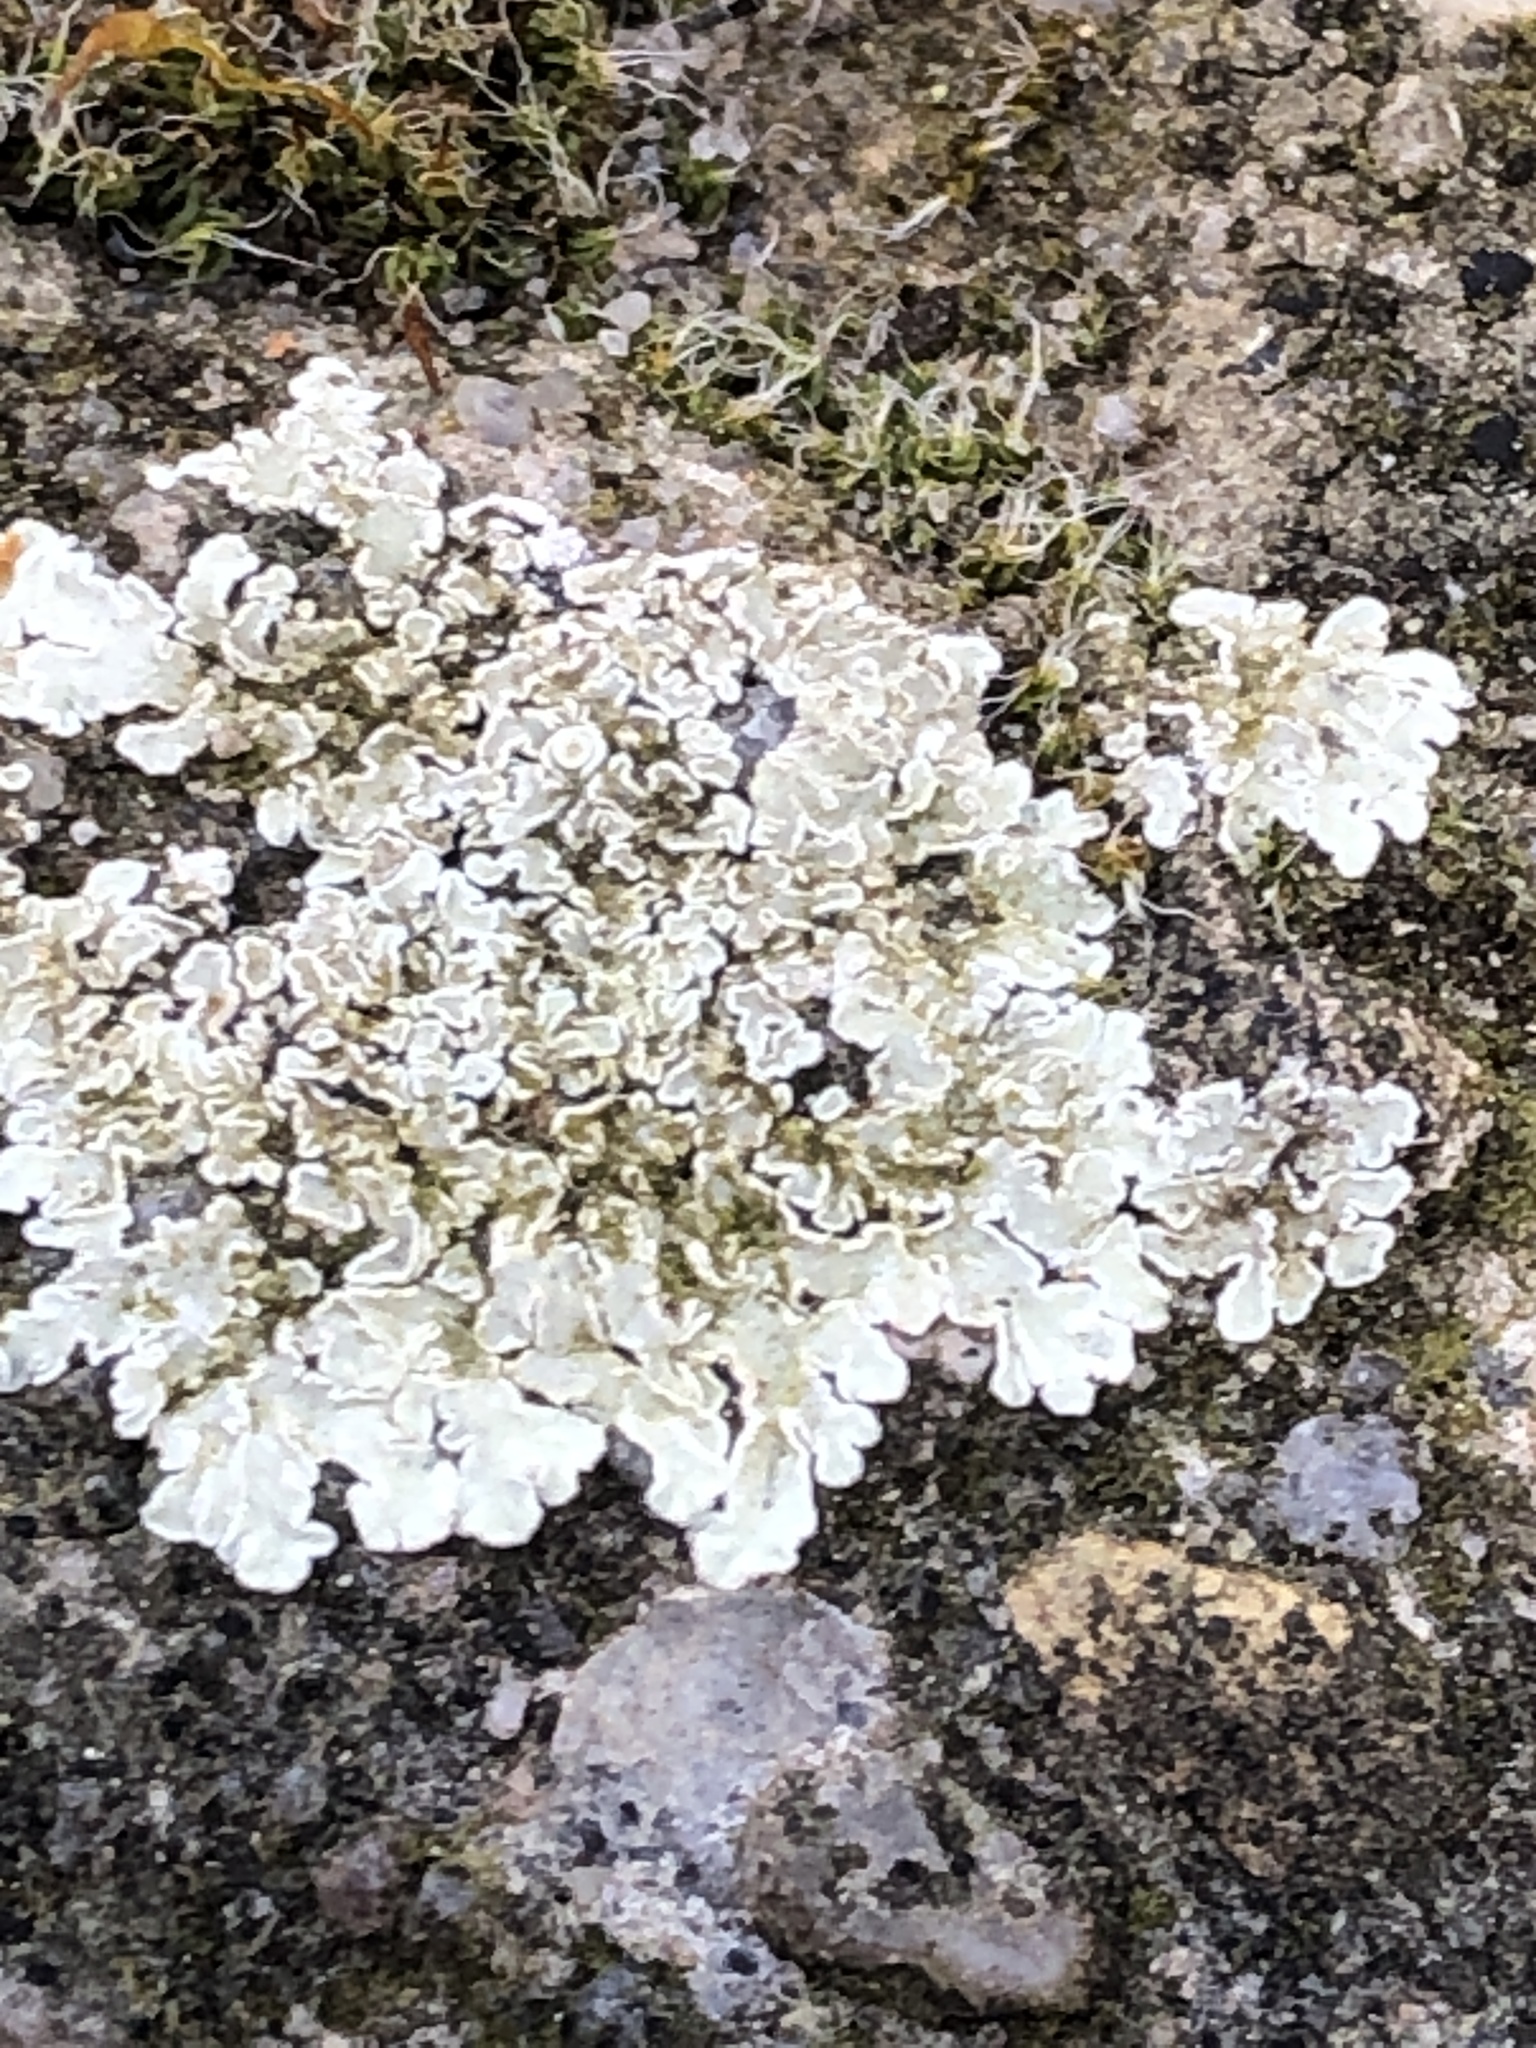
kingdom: Fungi
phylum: Ascomycota
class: Lecanoromycetes
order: Lecanorales
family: Lecanoraceae
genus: Protoparmeliopsis
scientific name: Protoparmeliopsis muralis
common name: Stonewall rim lichen
